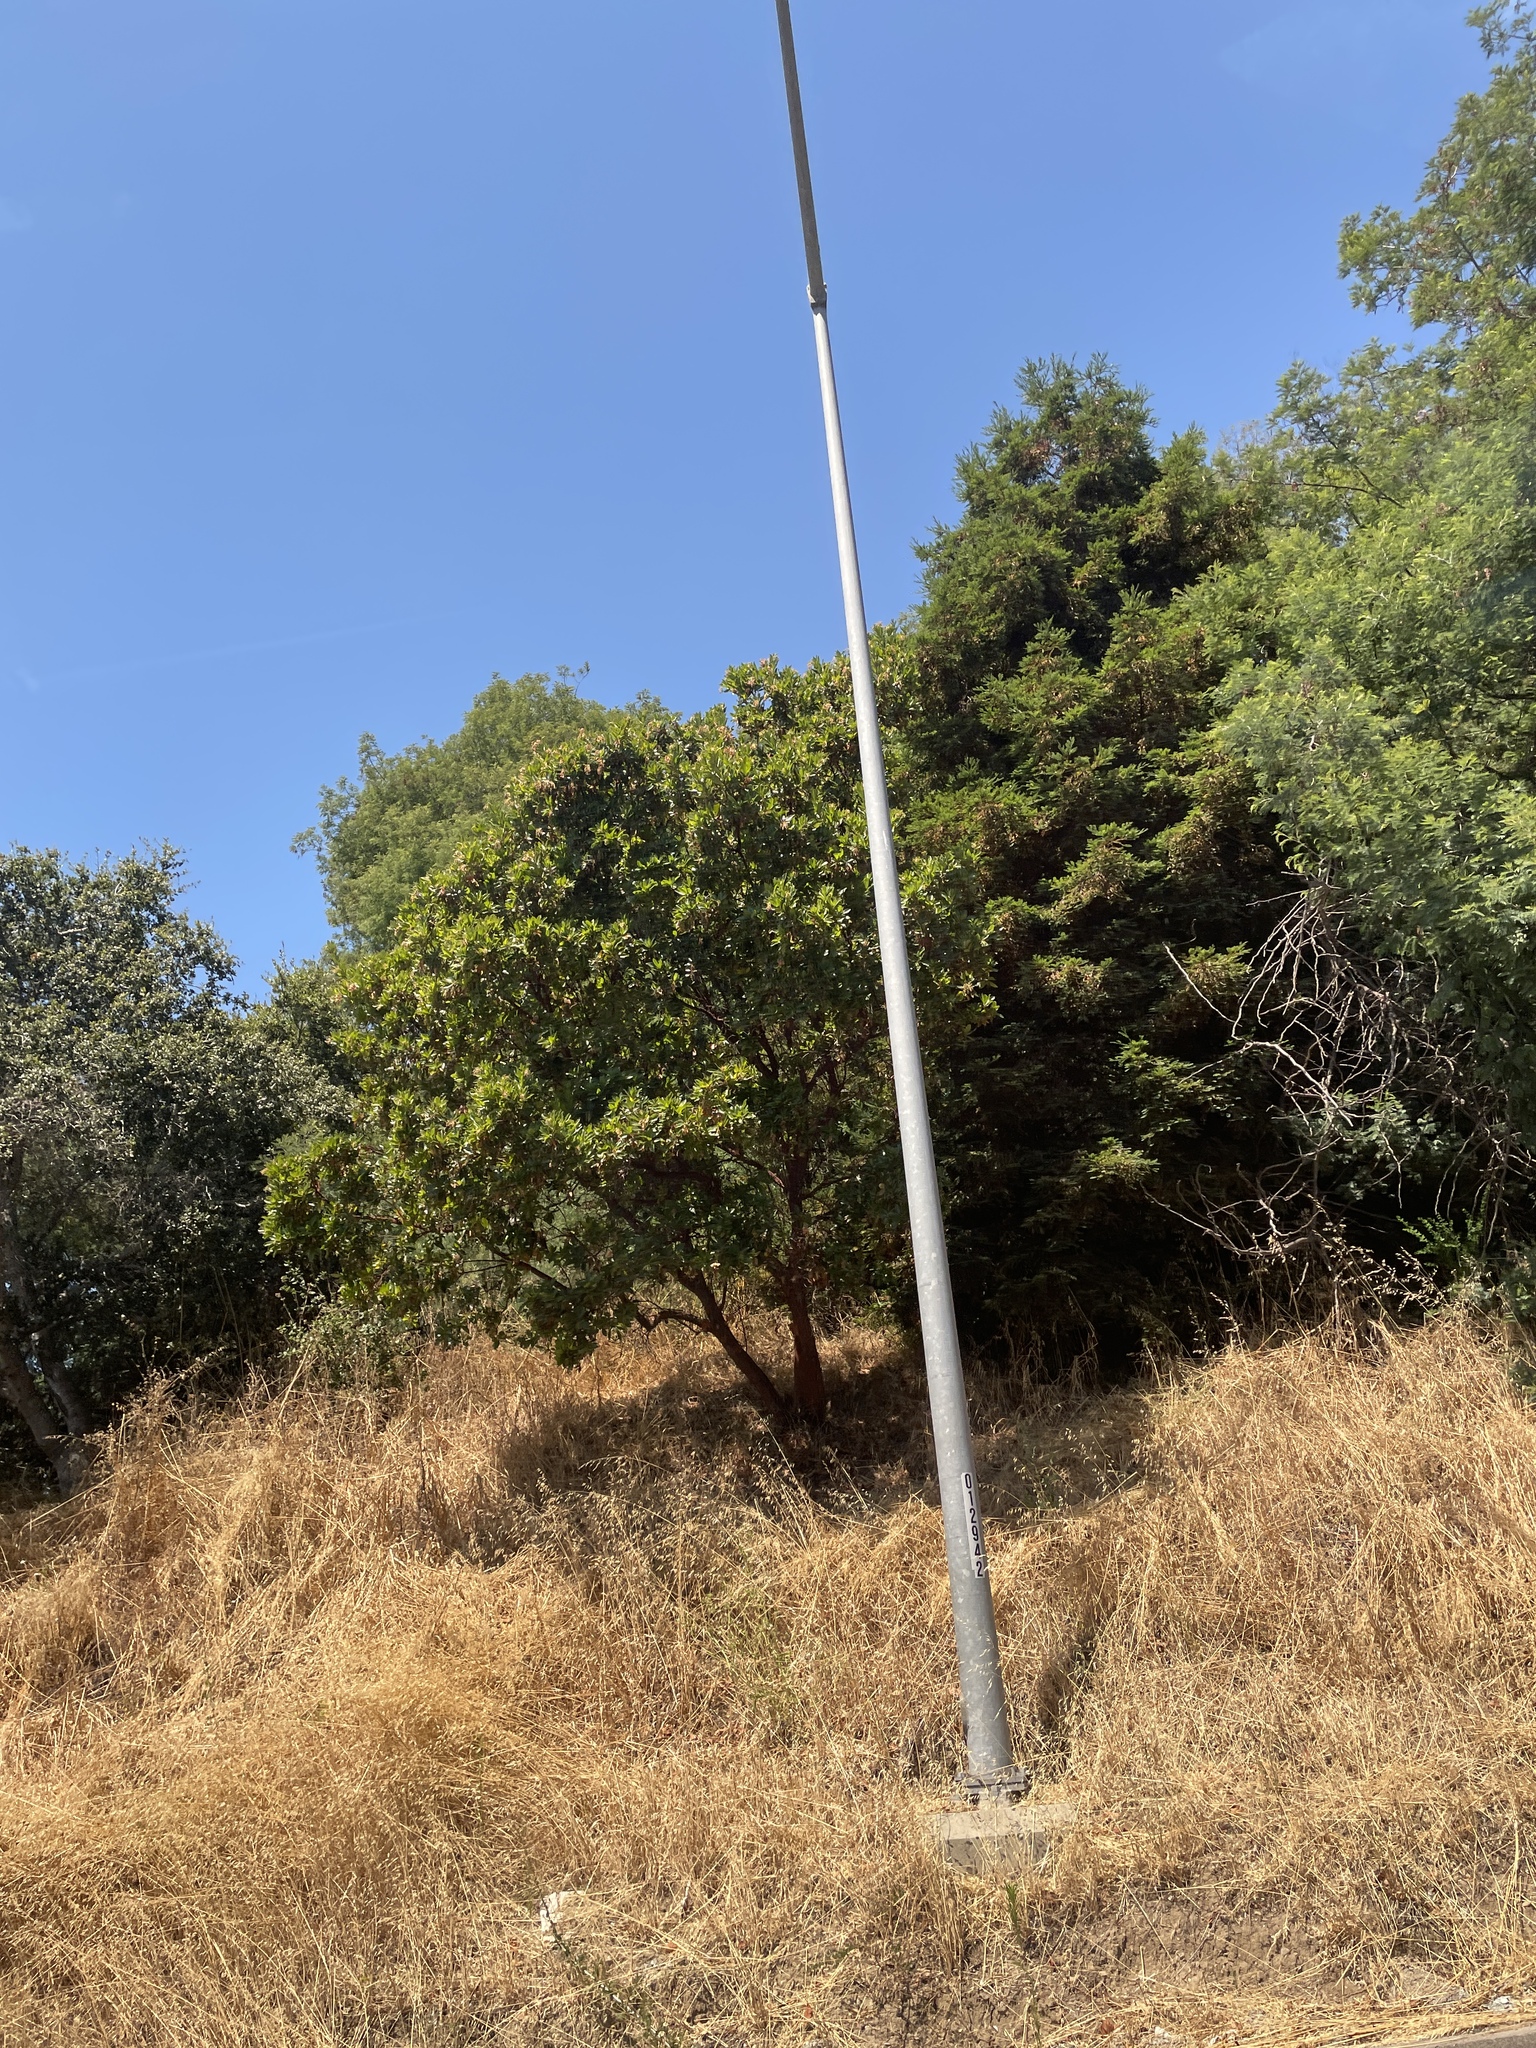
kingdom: Plantae
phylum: Tracheophyta
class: Magnoliopsida
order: Ericales
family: Ericaceae
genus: Arbutus
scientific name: Arbutus menziesii
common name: Pacific madrone
